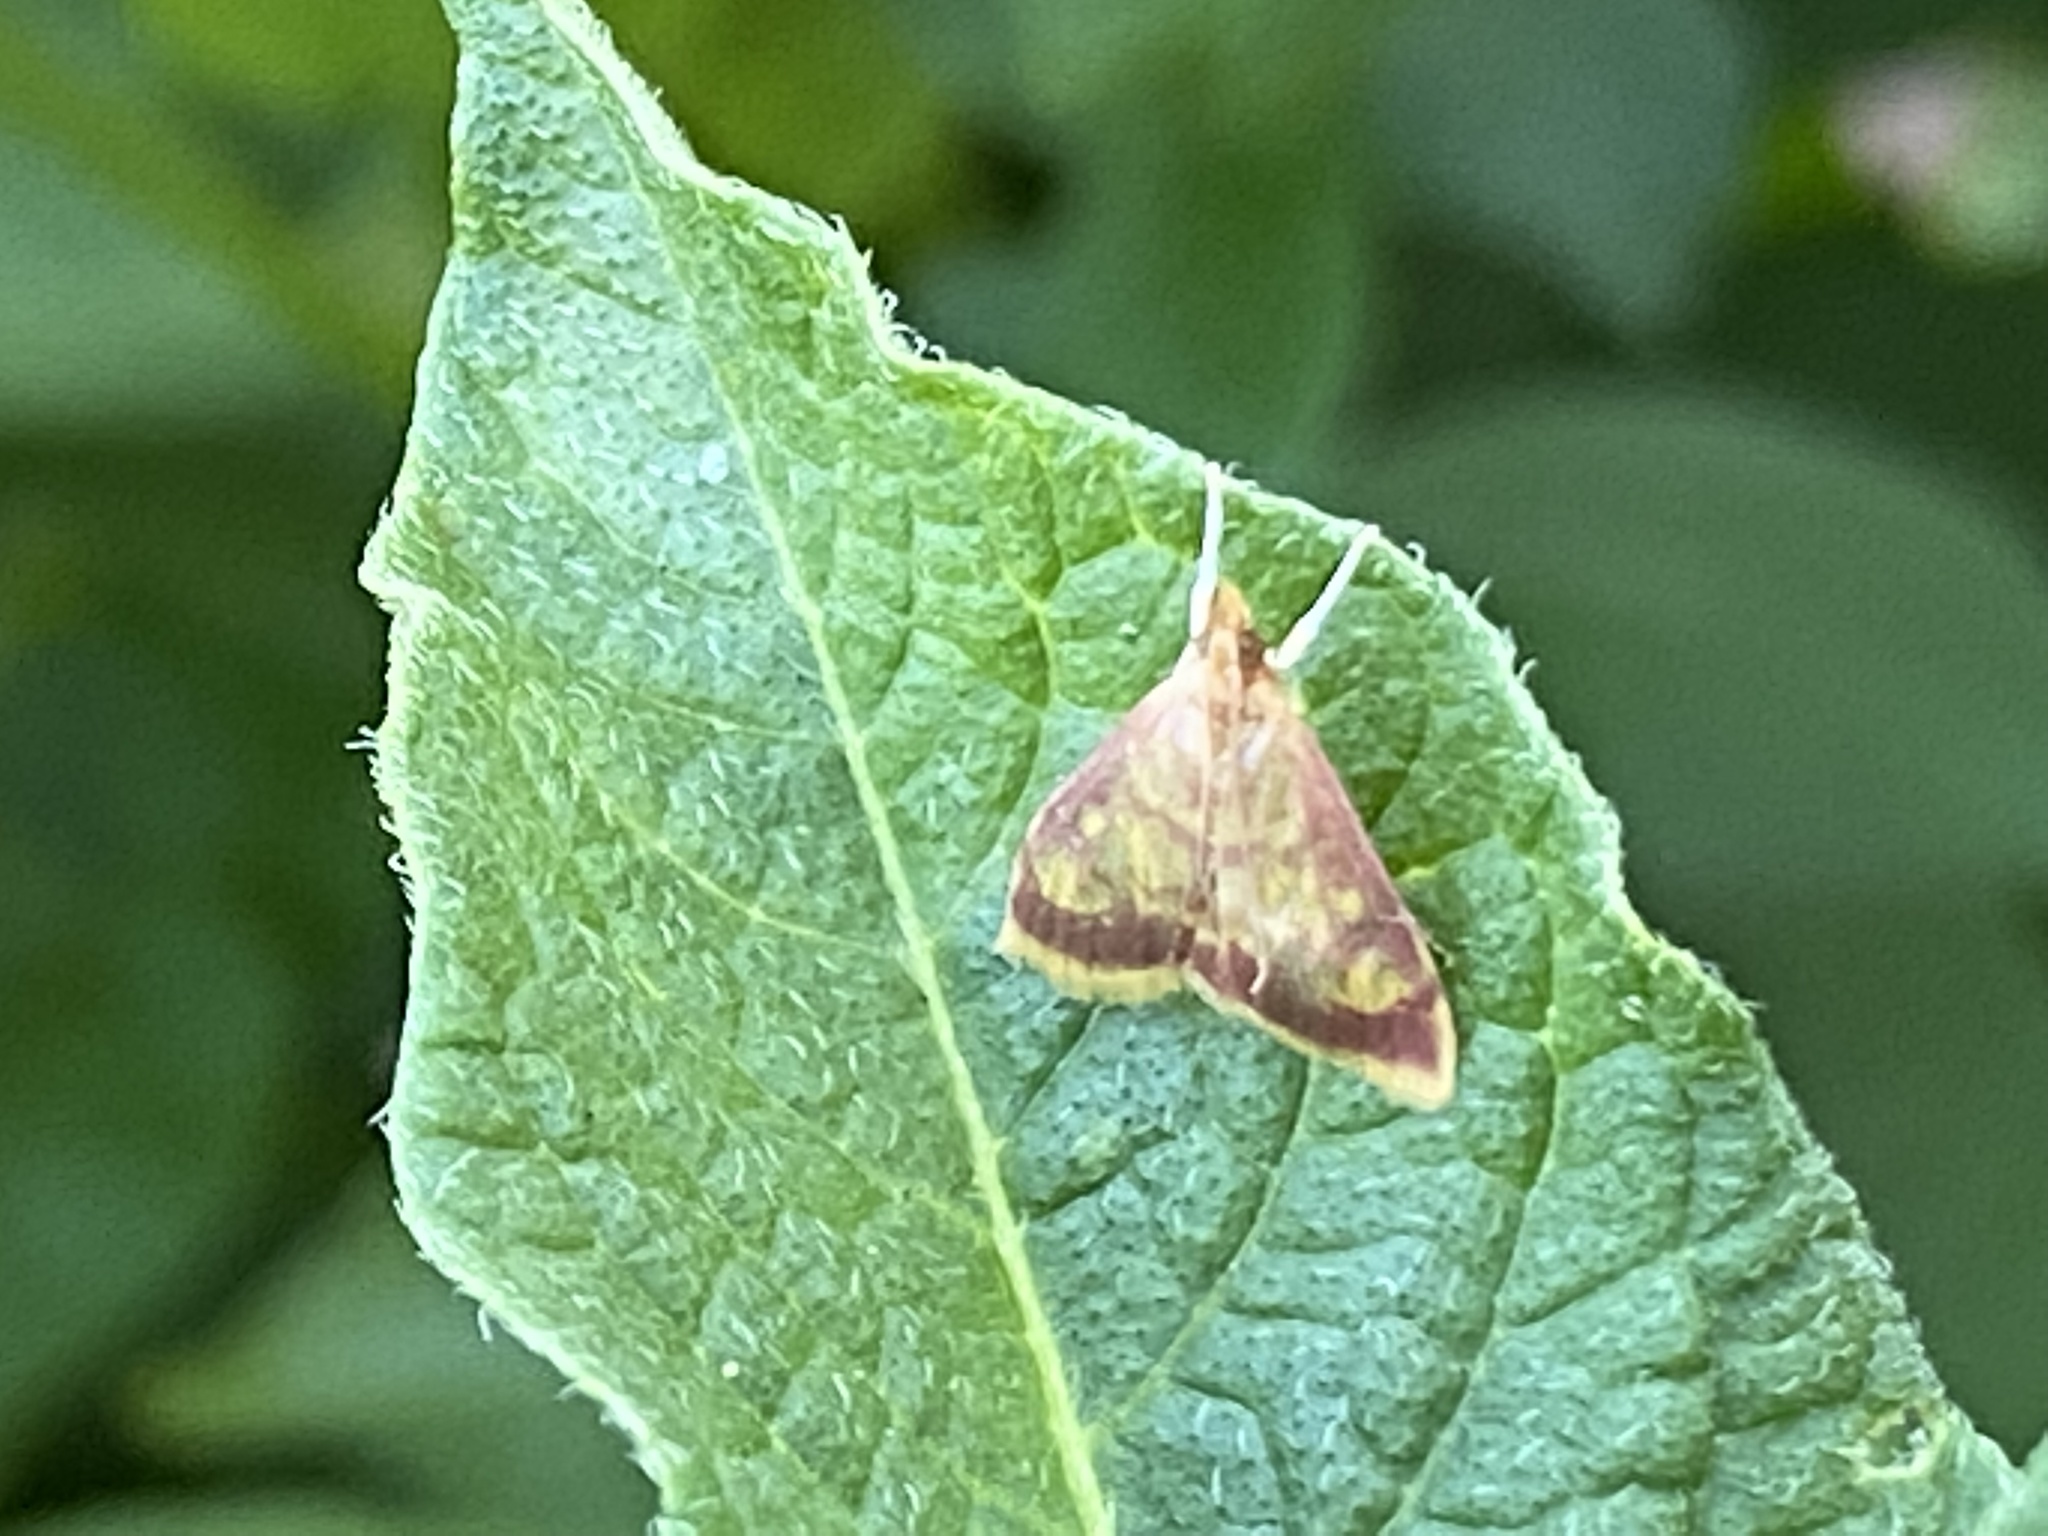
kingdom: Animalia
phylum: Arthropoda
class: Insecta
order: Lepidoptera
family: Crambidae
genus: Pyrausta
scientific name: Pyrausta acrionalis
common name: Mint-loving pyrausta moth
